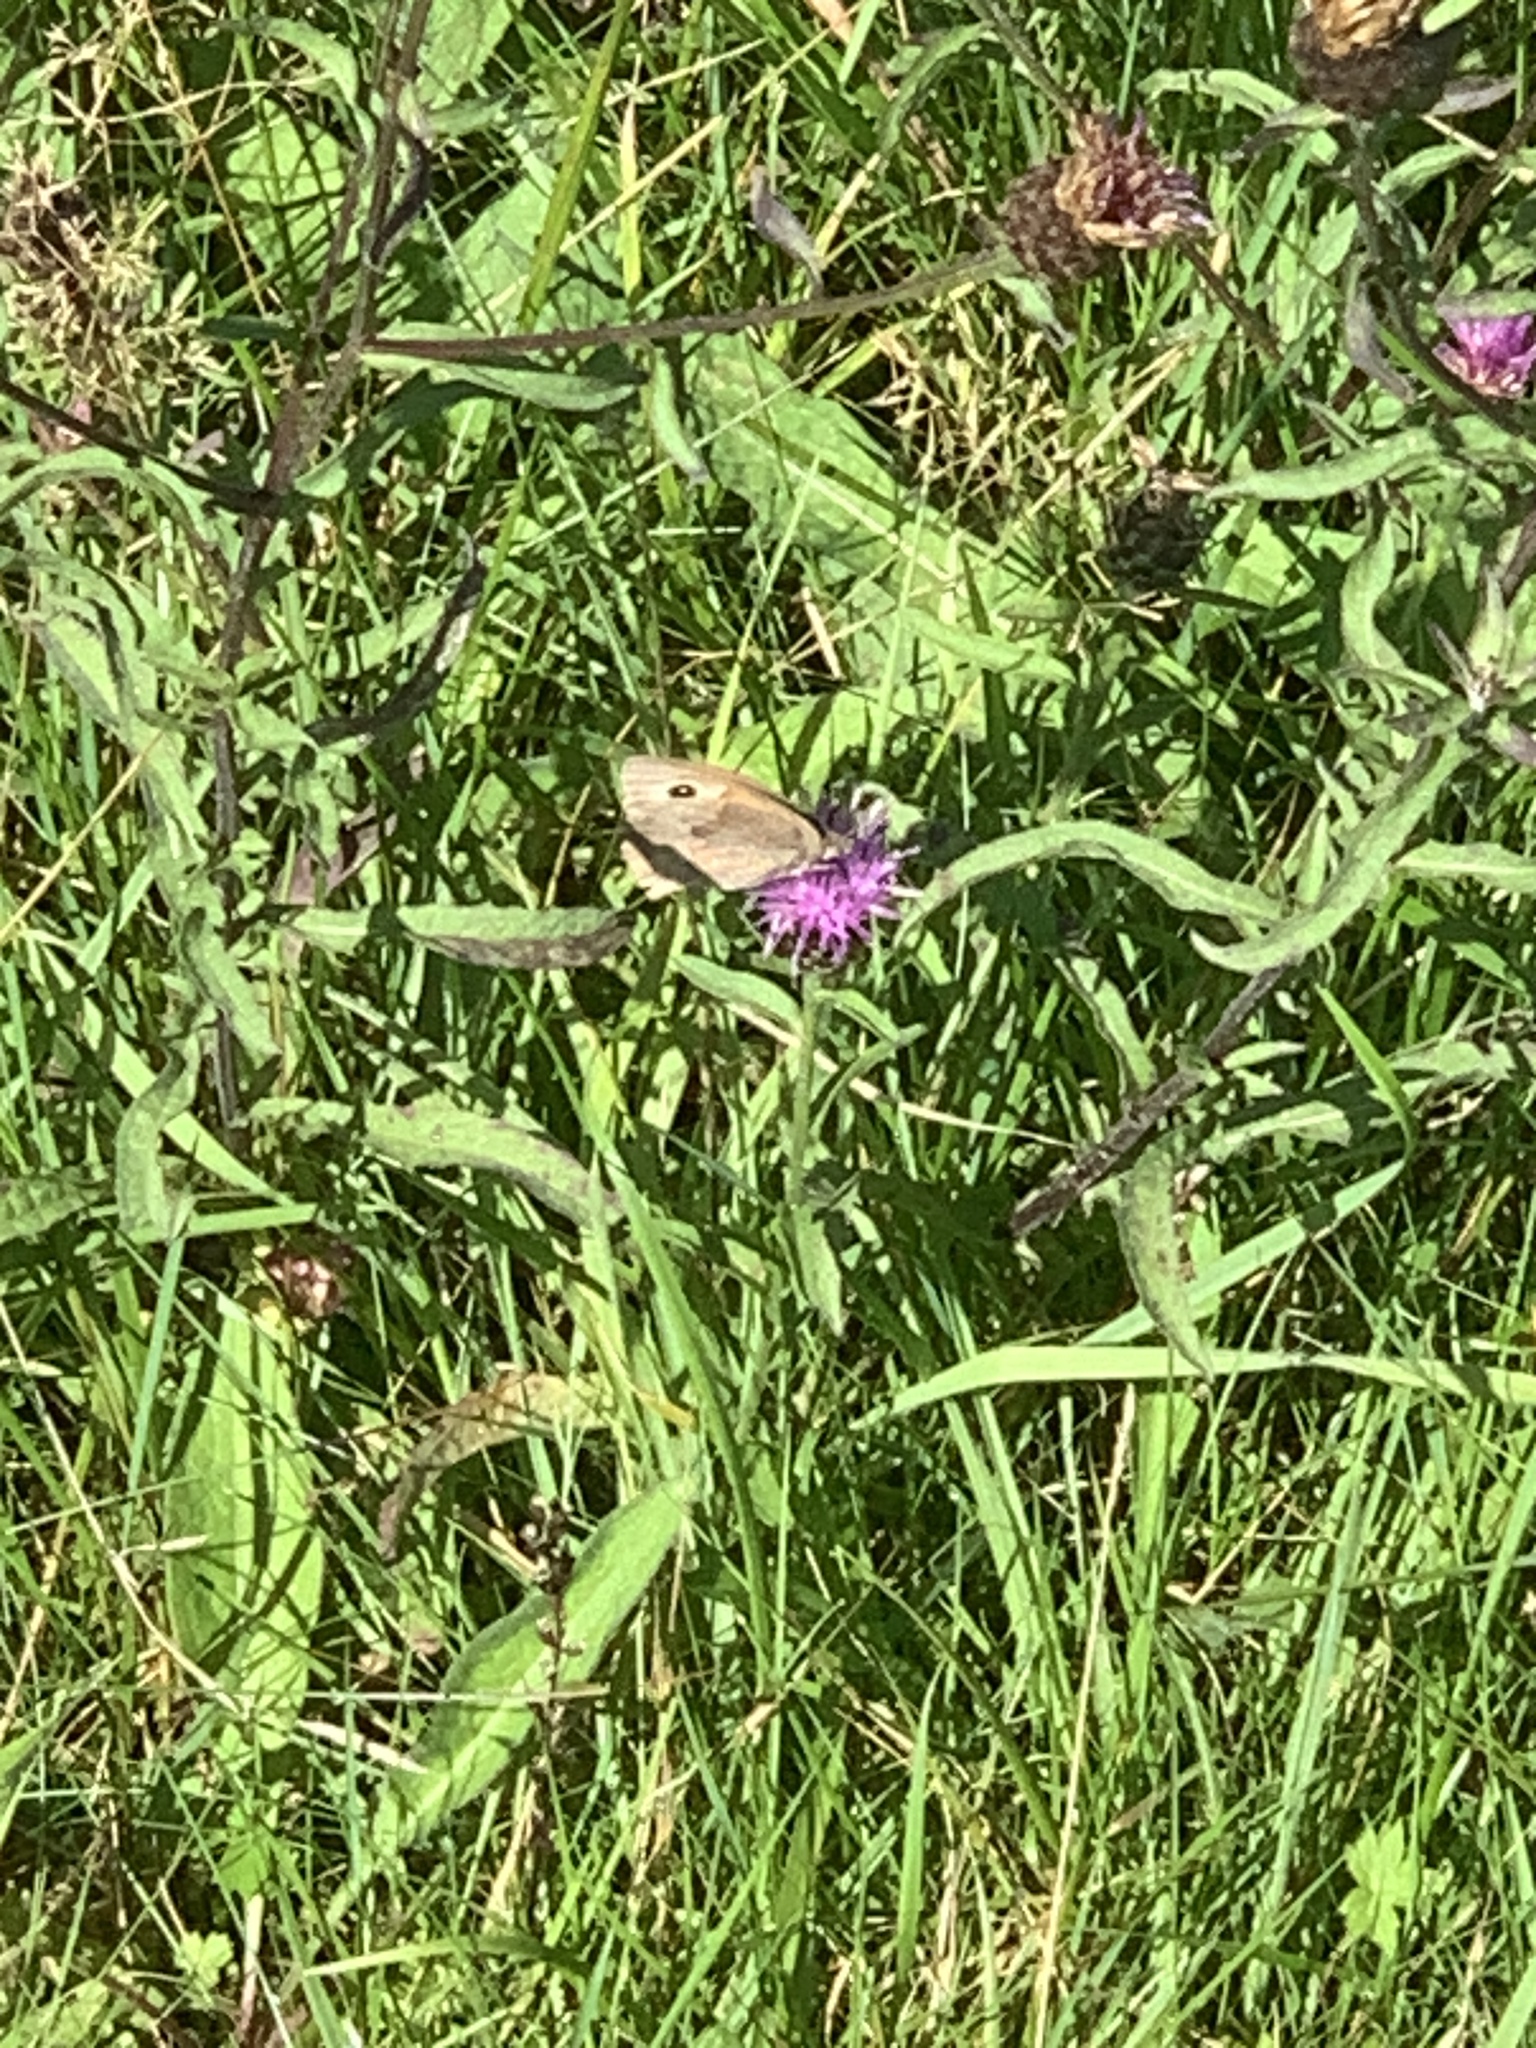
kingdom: Animalia
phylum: Arthropoda
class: Insecta
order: Lepidoptera
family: Nymphalidae
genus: Maniola
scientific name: Maniola jurtina
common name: Meadow brown
